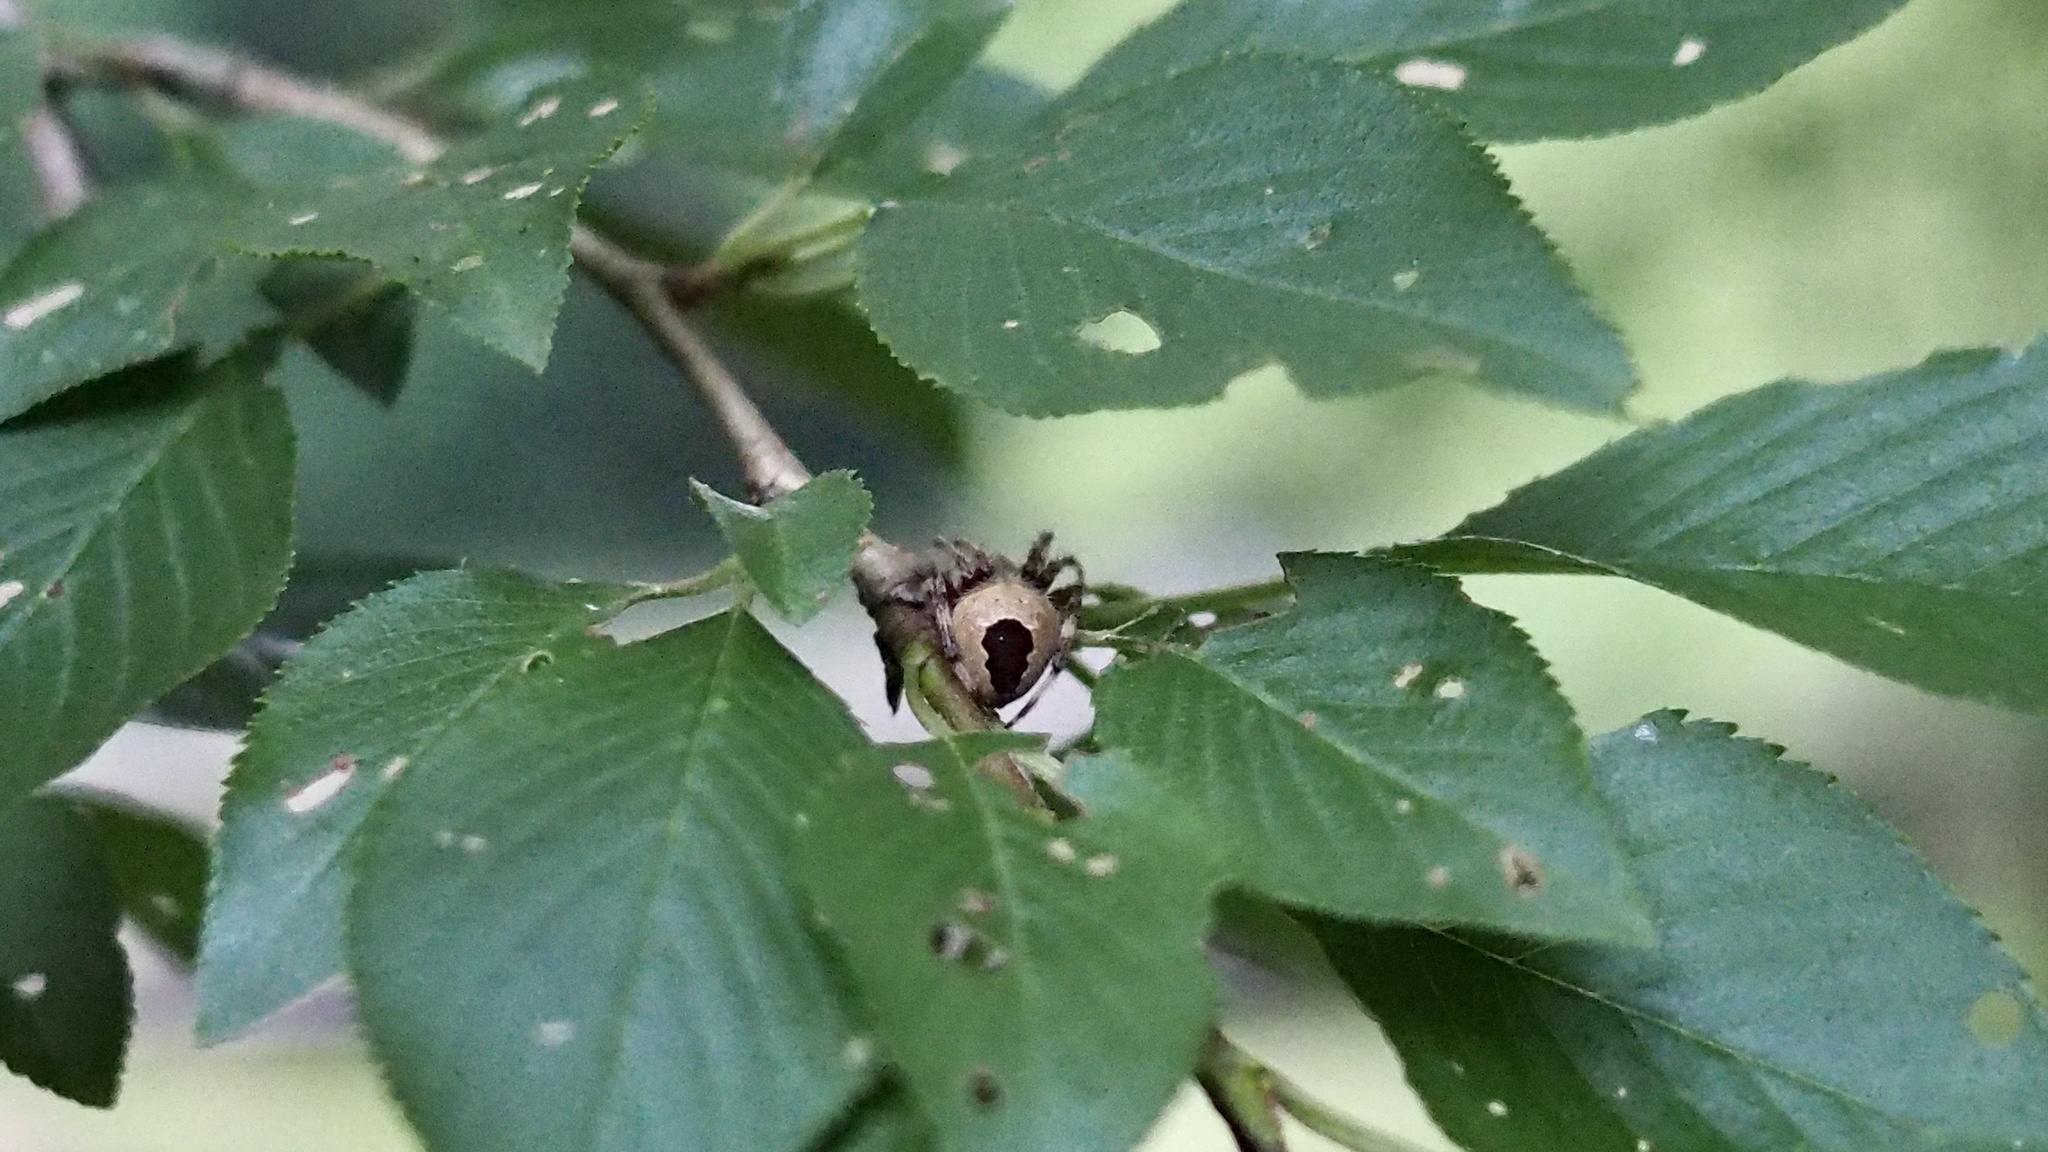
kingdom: Animalia
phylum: Arthropoda
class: Arachnida
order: Araneae
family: Araneidae
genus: Neoscona
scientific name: Neoscona scylla
